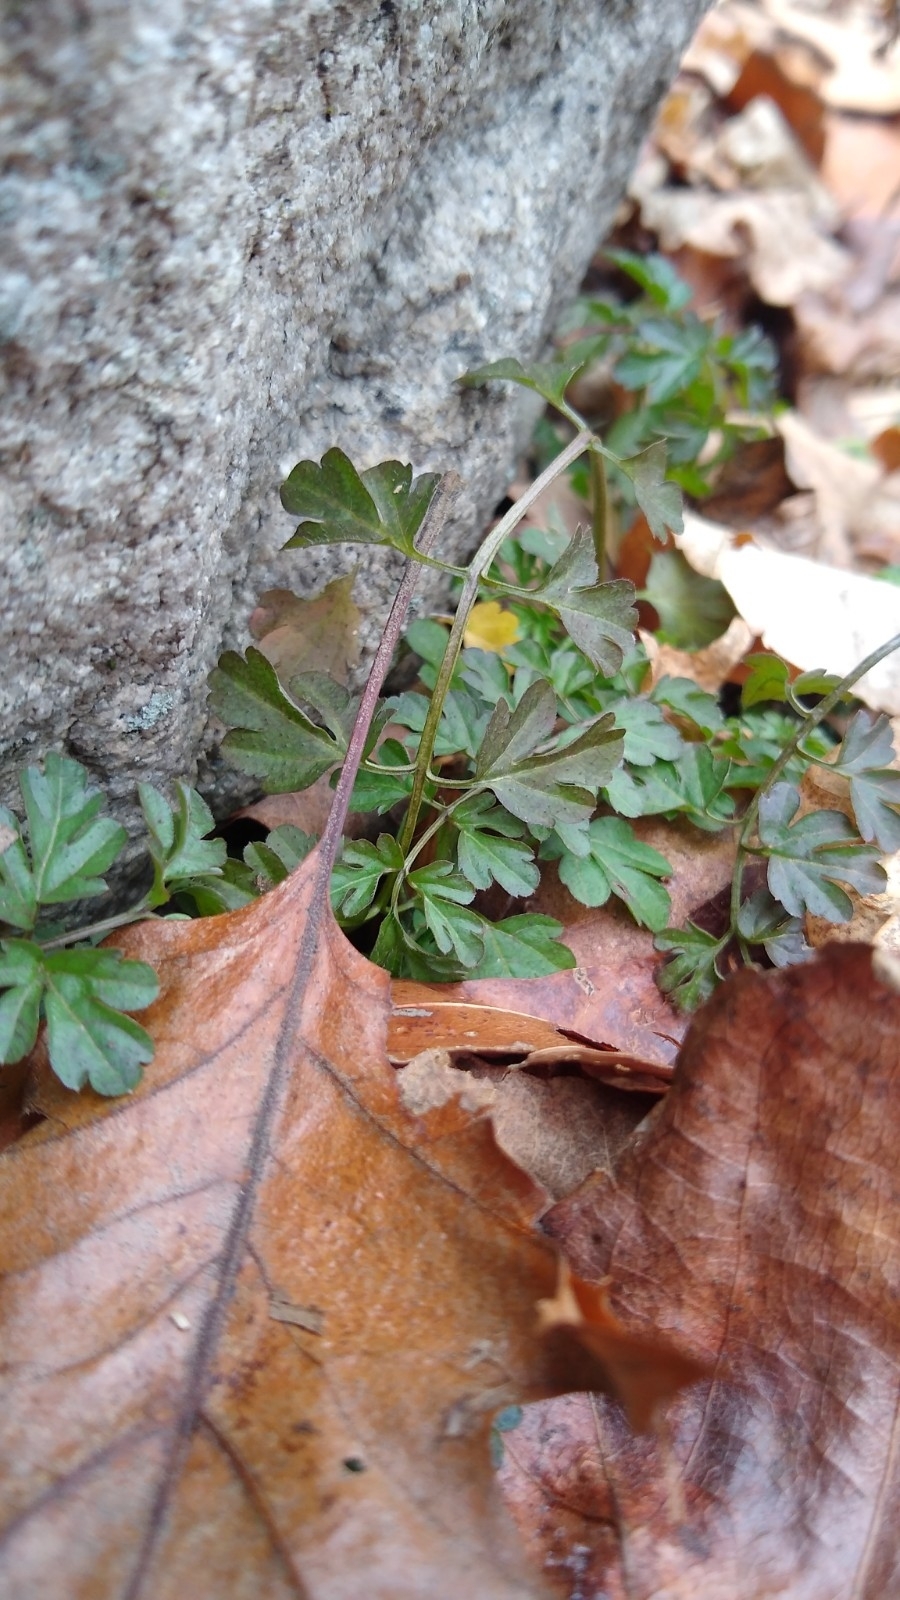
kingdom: Plantae
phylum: Tracheophyta
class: Magnoliopsida
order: Brassicales
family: Brassicaceae
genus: Cardamine
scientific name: Cardamine impatiens
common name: Narrow-leaved bitter-cress
